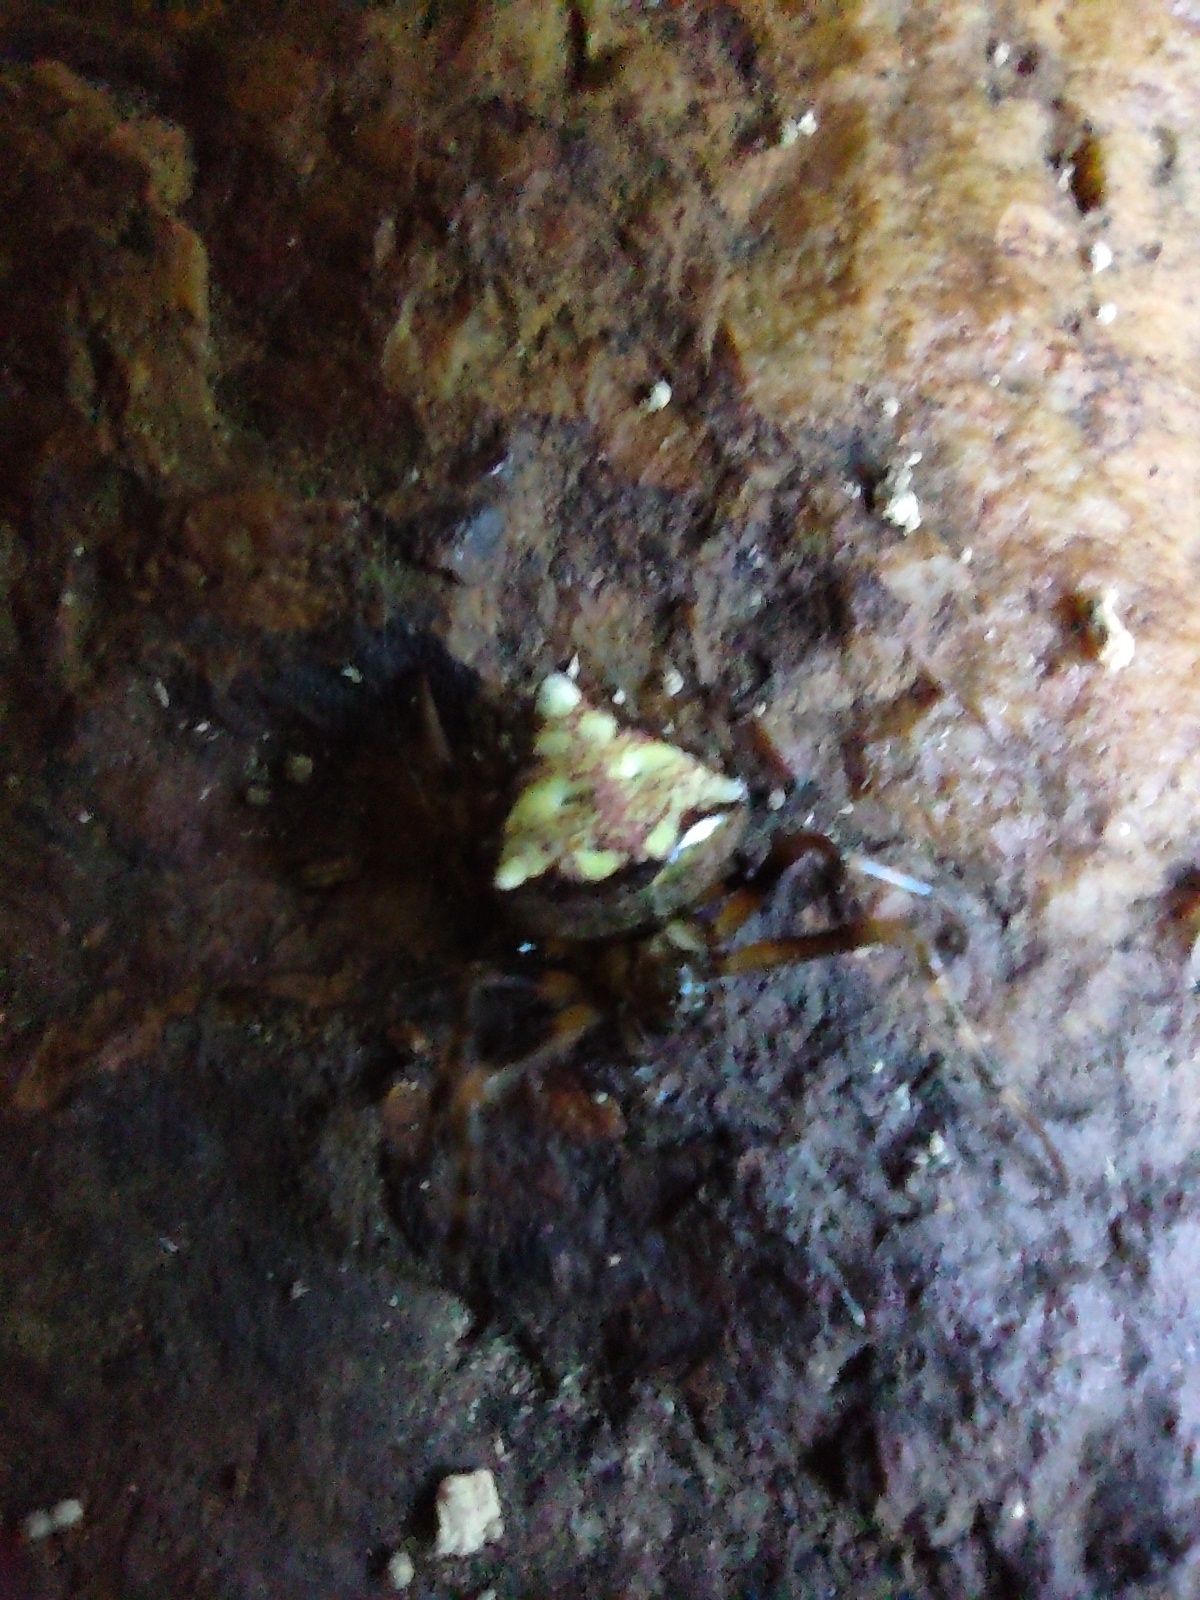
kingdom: Animalia
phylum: Arthropoda
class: Arachnida
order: Araneae
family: Araneidae
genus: Verrucosa
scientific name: Verrucosa arenata
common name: Orb weavers
